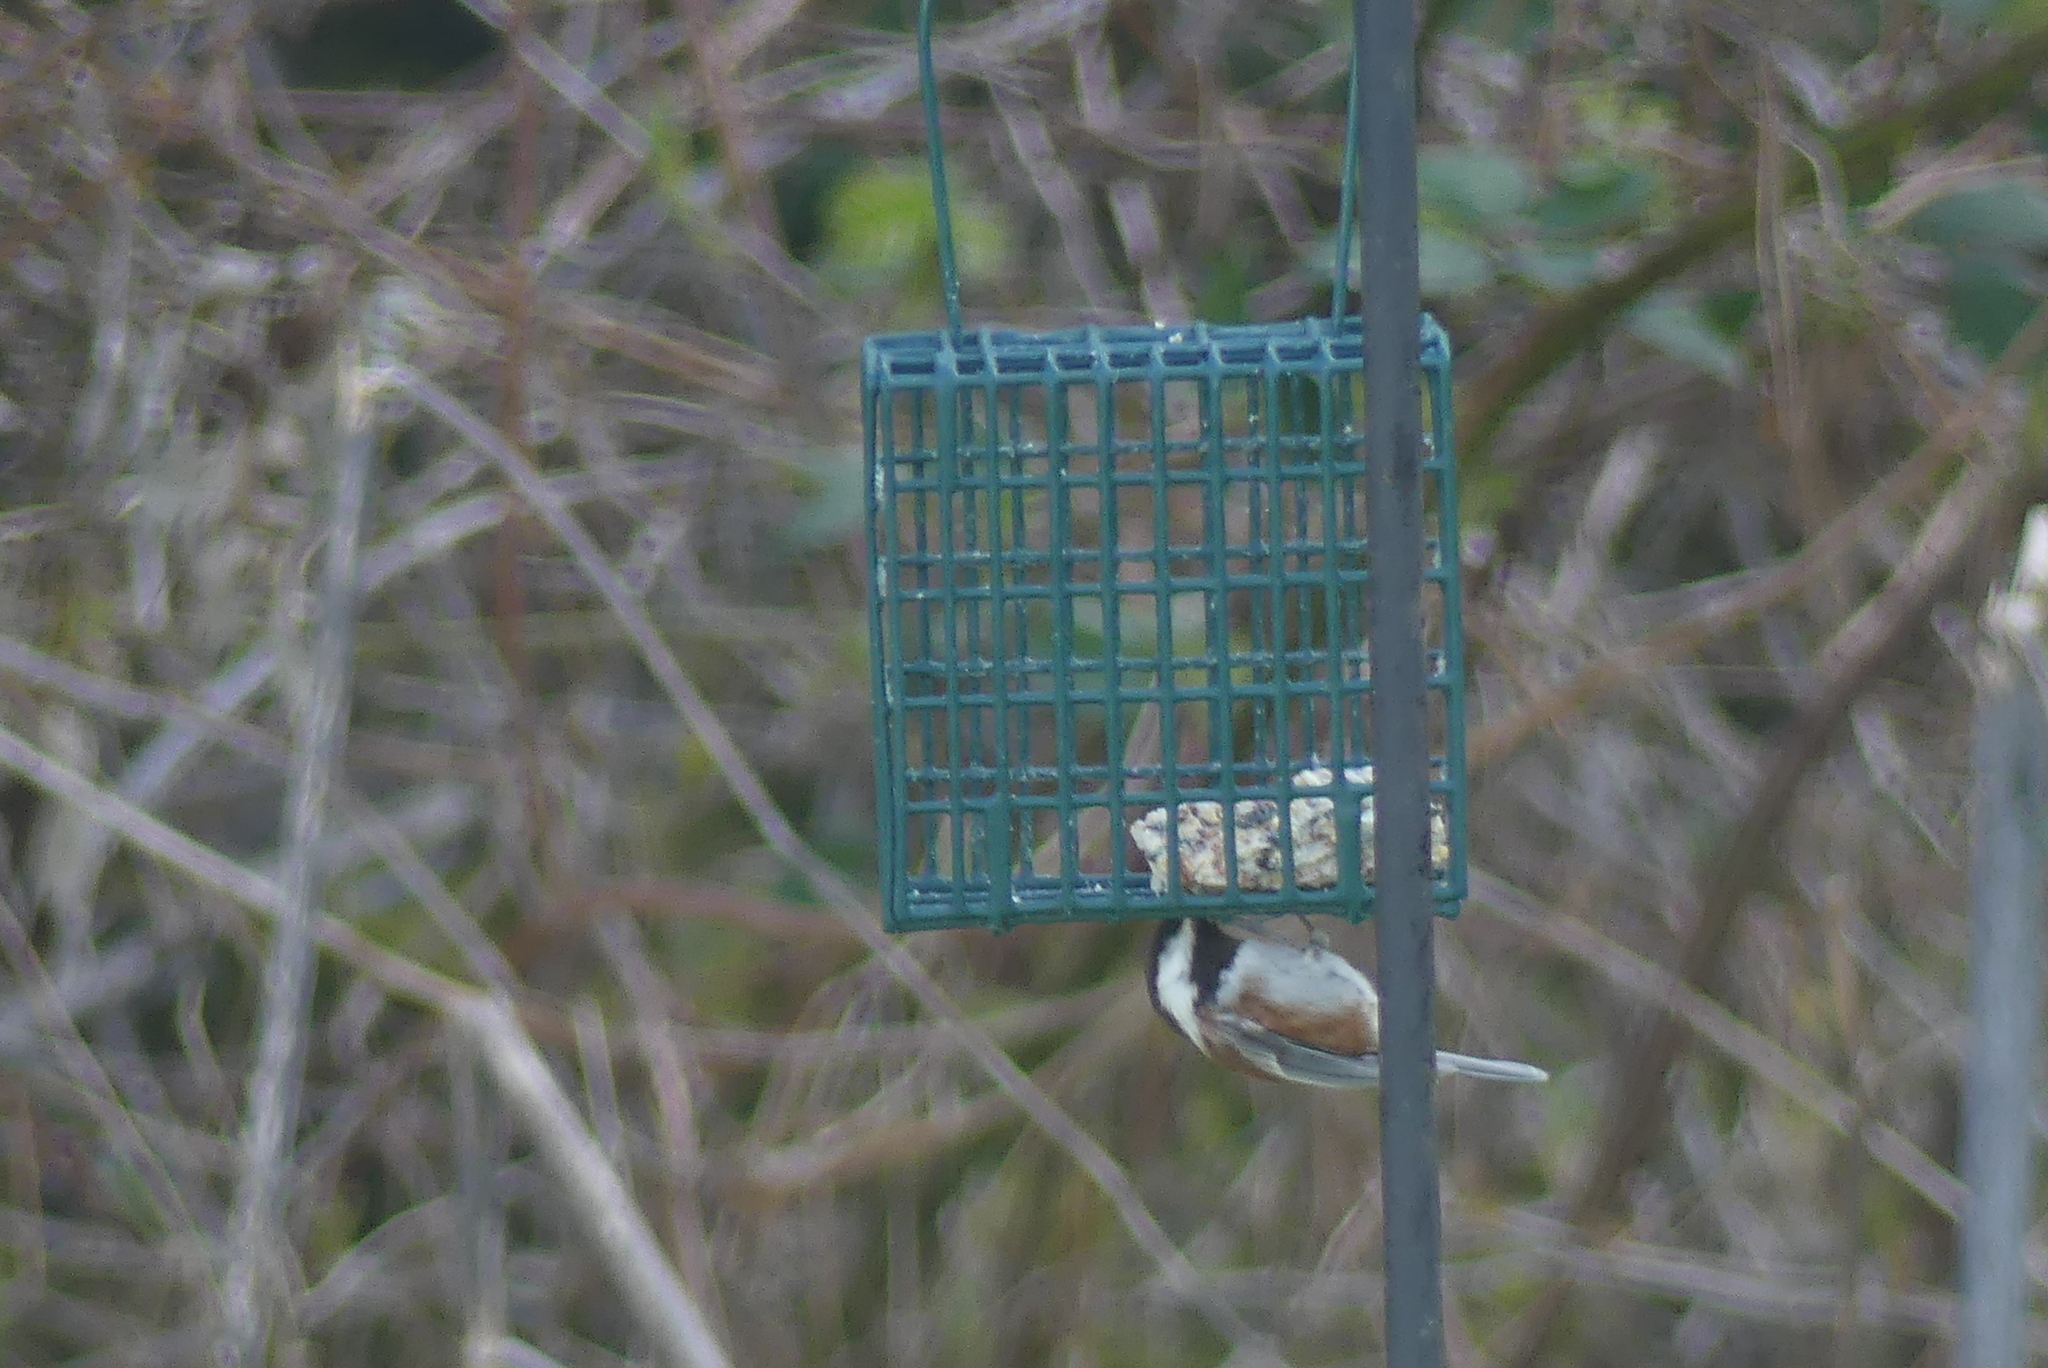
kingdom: Animalia
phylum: Chordata
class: Aves
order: Passeriformes
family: Paridae
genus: Poecile
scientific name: Poecile rufescens
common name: Chestnut-backed chickadee
